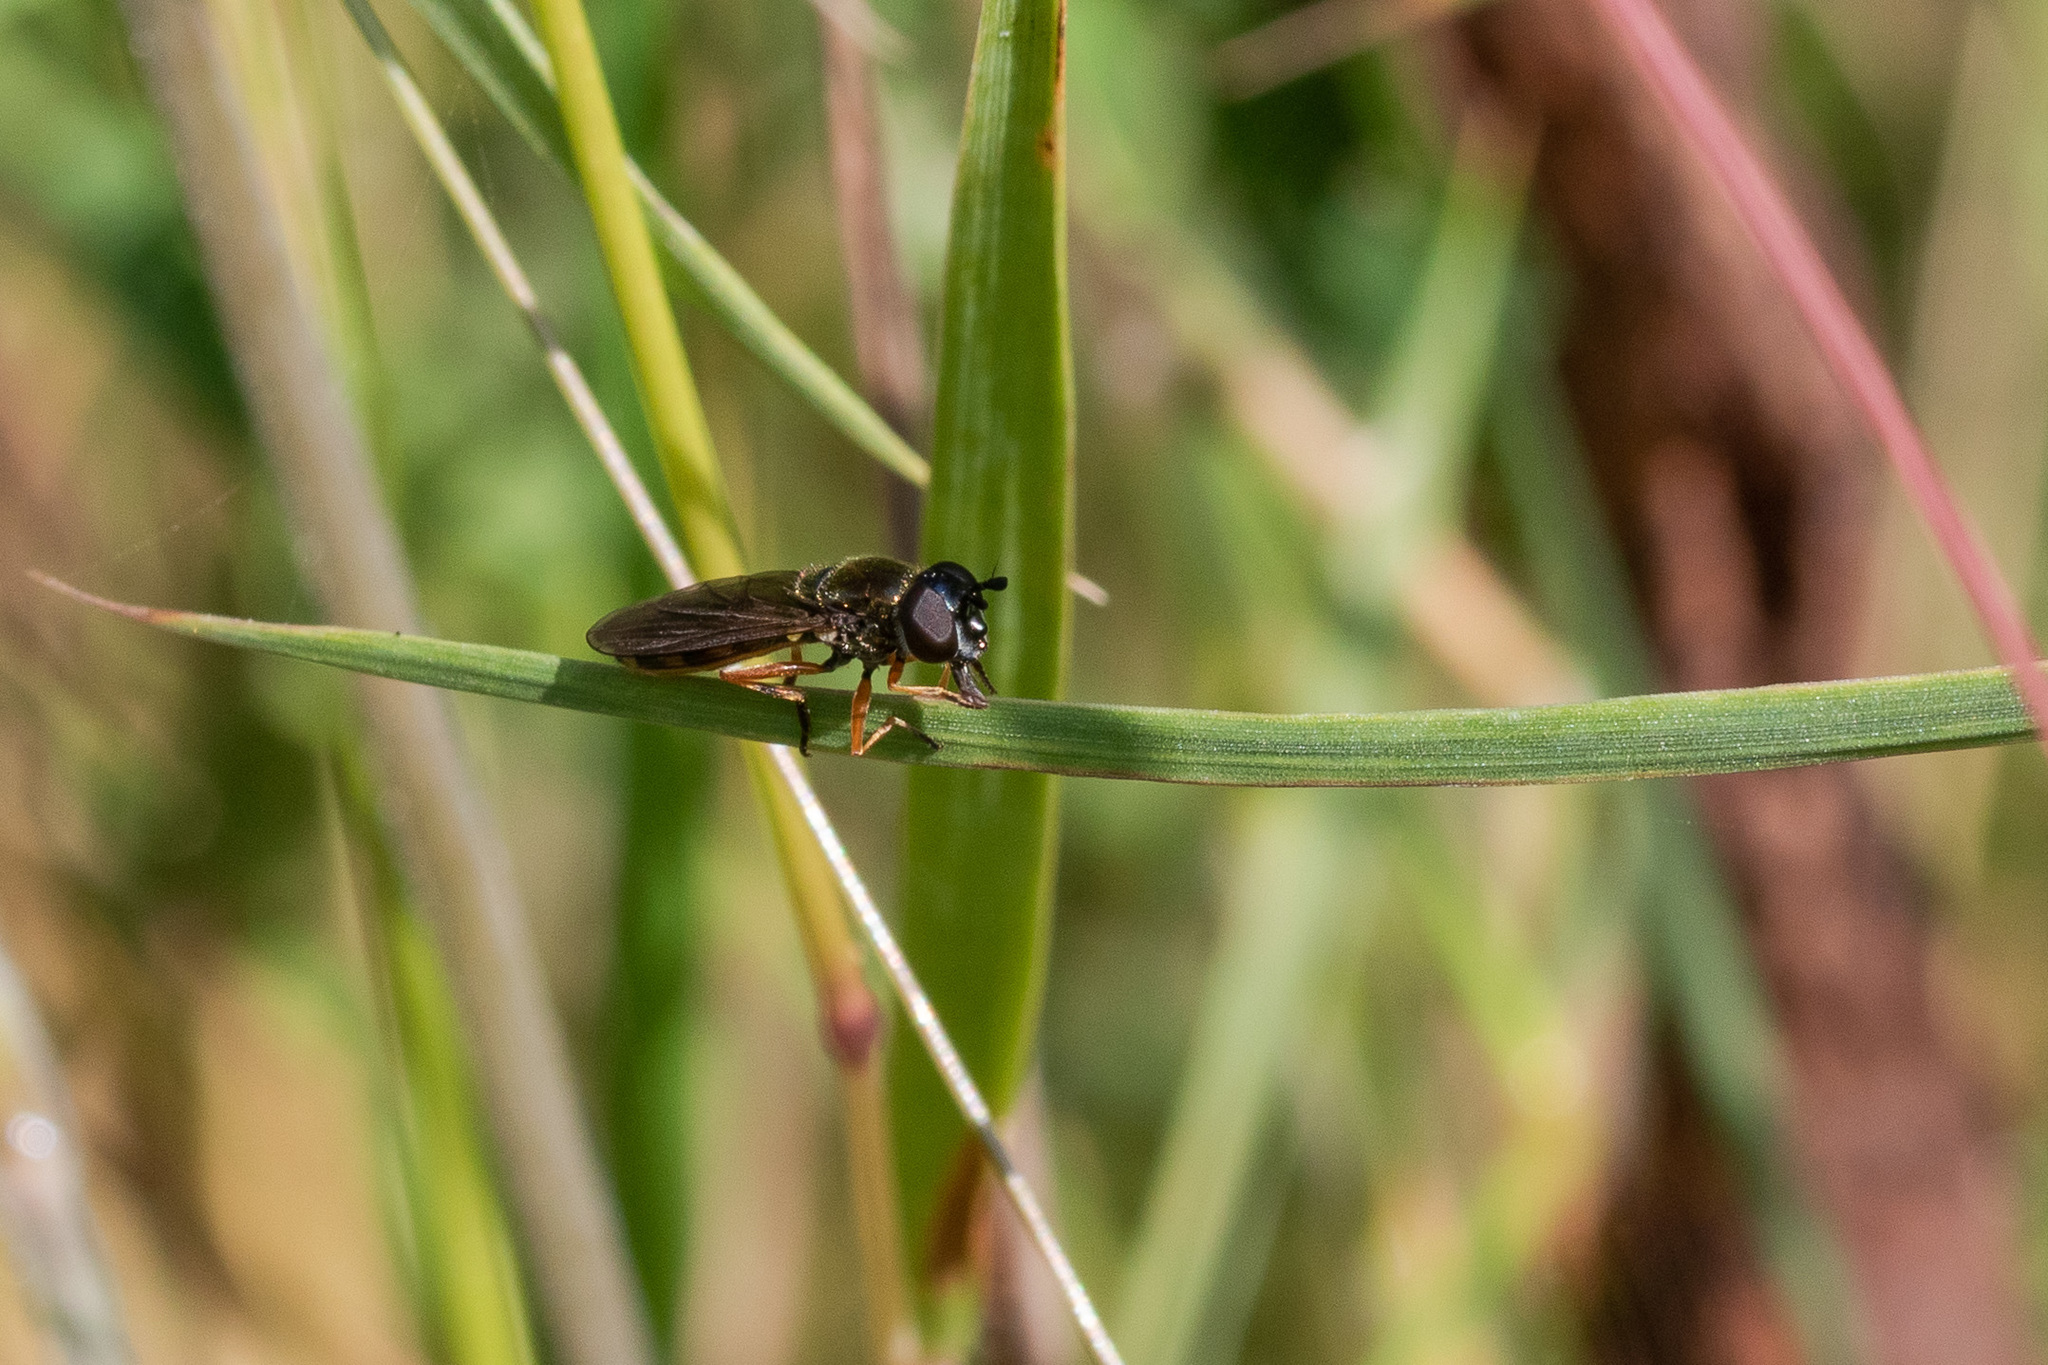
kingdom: Animalia
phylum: Arthropoda
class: Insecta
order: Diptera
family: Syrphidae
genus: Pyrophaena
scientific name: Pyrophaena granditarsa
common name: Hornhand sedgesitter
